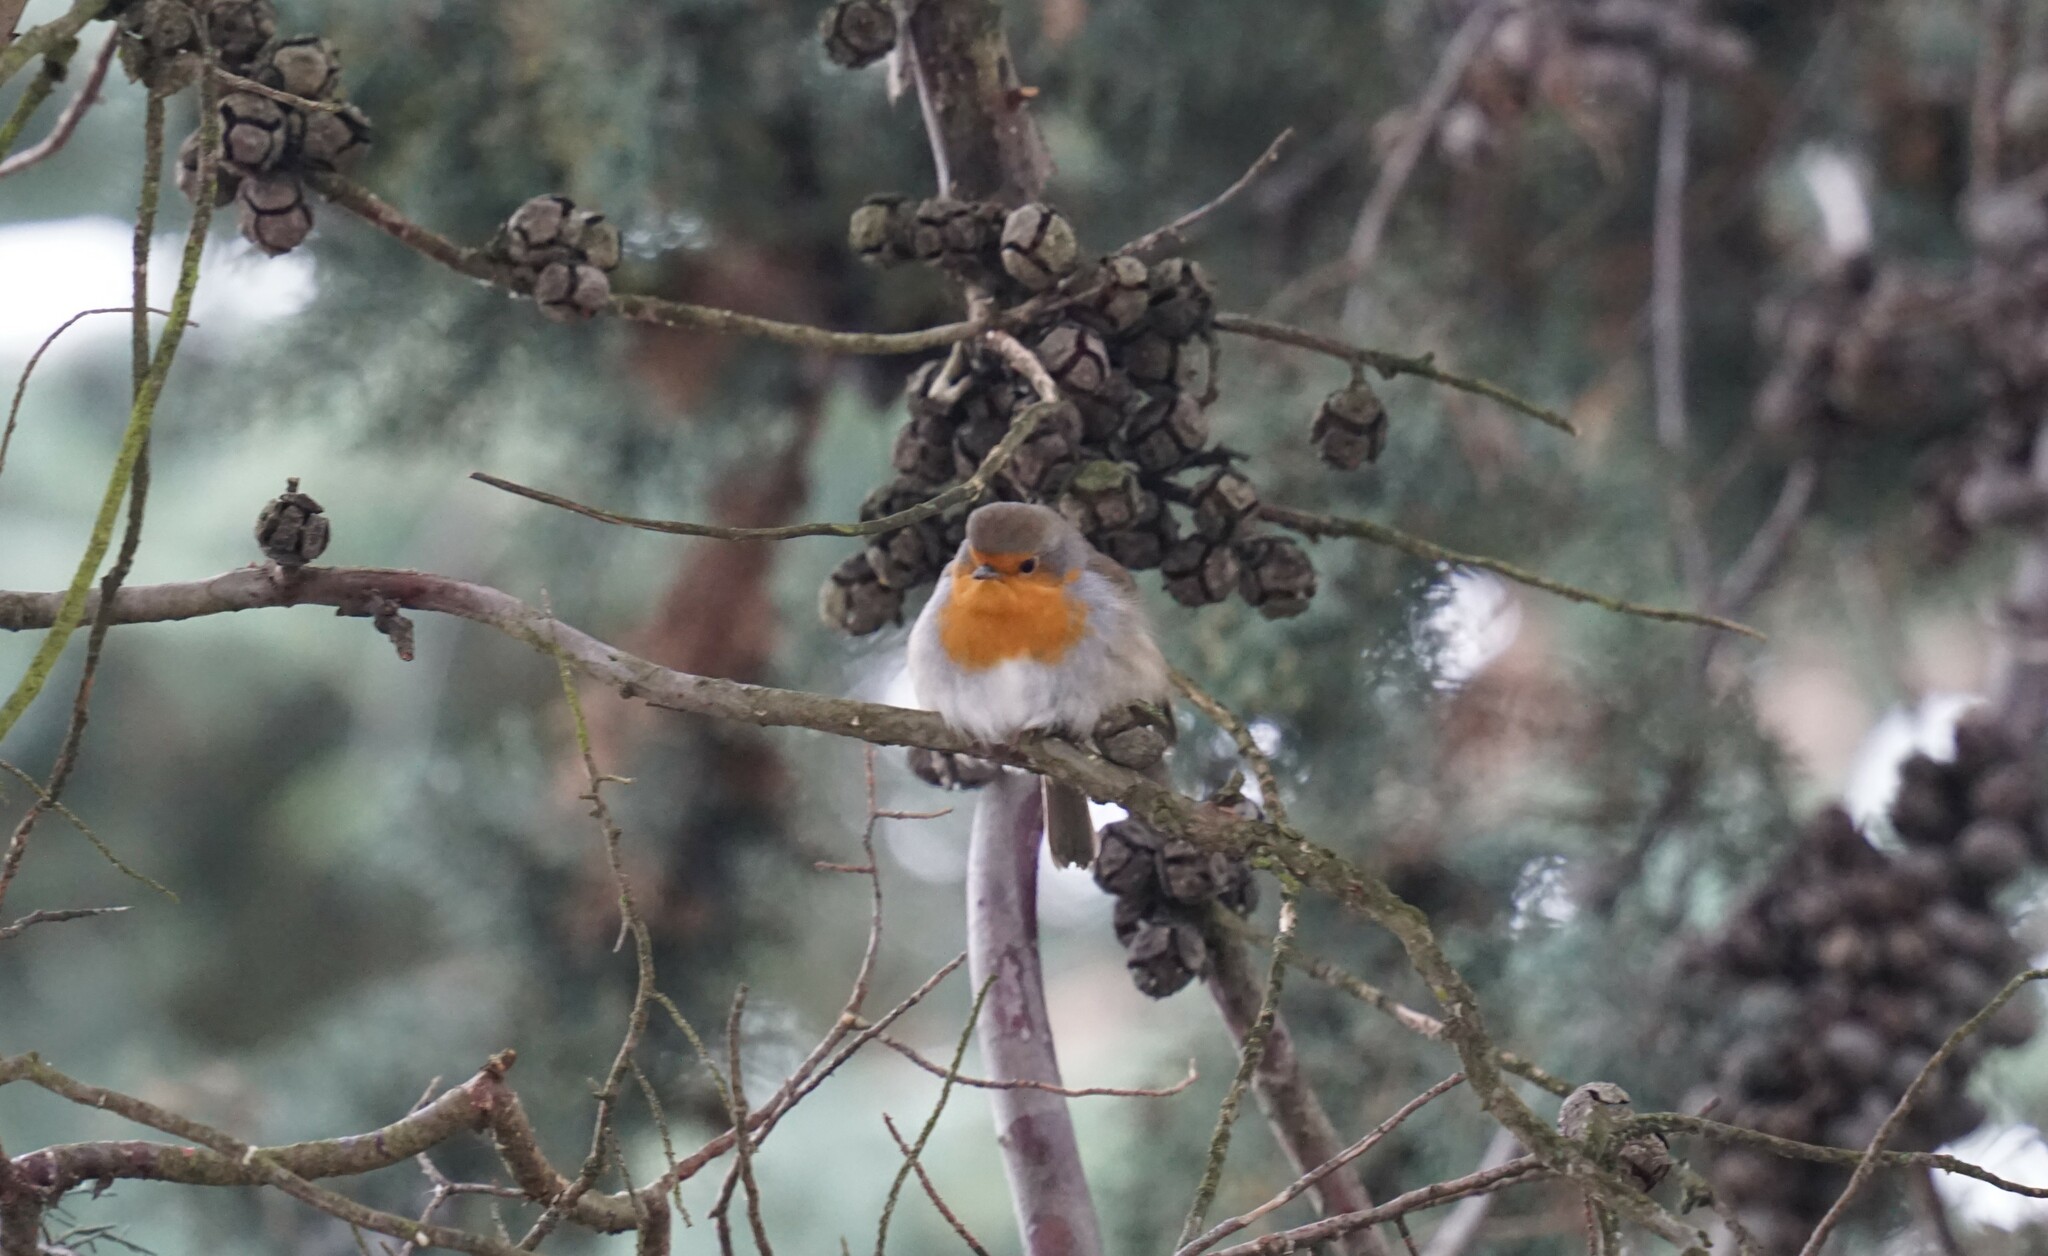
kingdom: Animalia
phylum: Chordata
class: Aves
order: Passeriformes
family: Muscicapidae
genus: Erithacus
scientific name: Erithacus rubecula
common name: European robin
